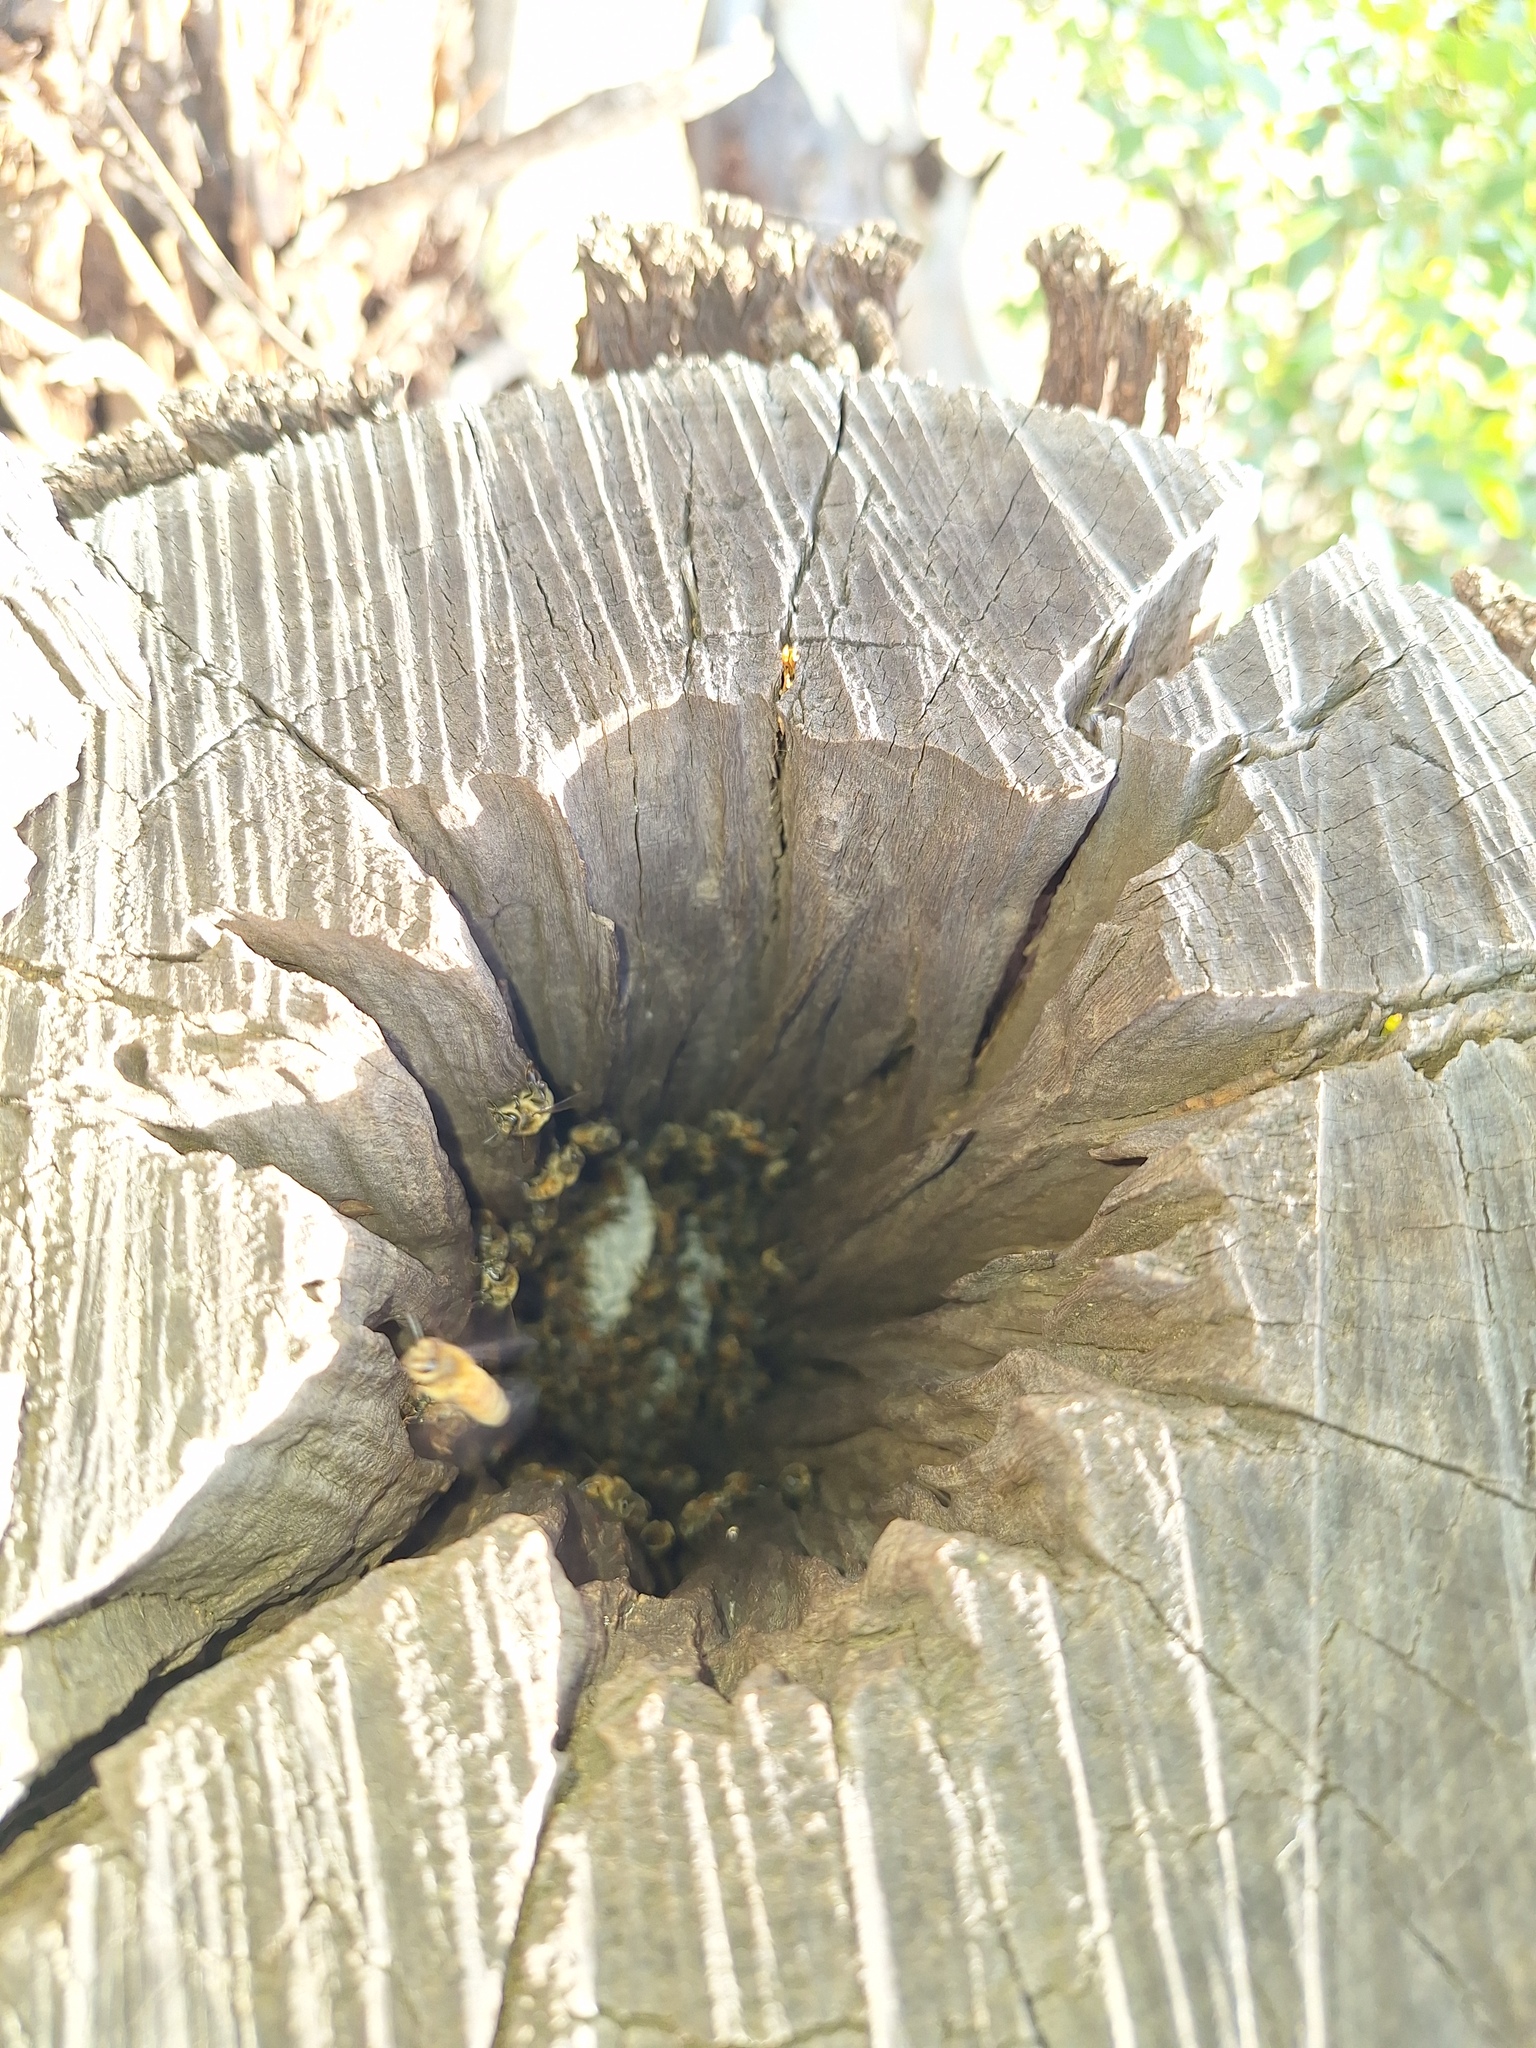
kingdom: Animalia
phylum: Arthropoda
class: Insecta
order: Hymenoptera
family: Apidae
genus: Apis
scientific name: Apis mellifera
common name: Honey bee
